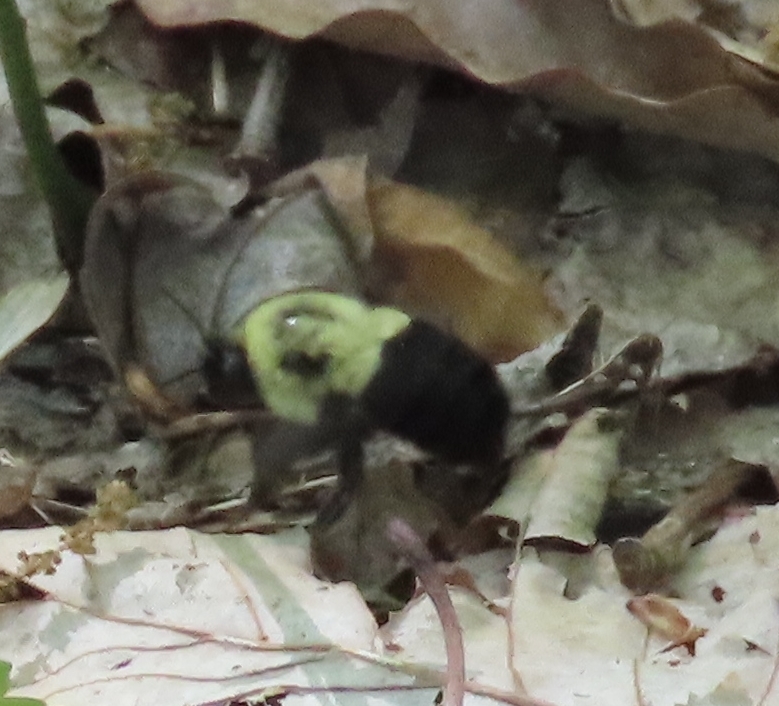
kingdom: Animalia
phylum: Arthropoda
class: Insecta
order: Hymenoptera
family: Apidae
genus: Bombus
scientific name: Bombus impatiens
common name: Common eastern bumble bee
